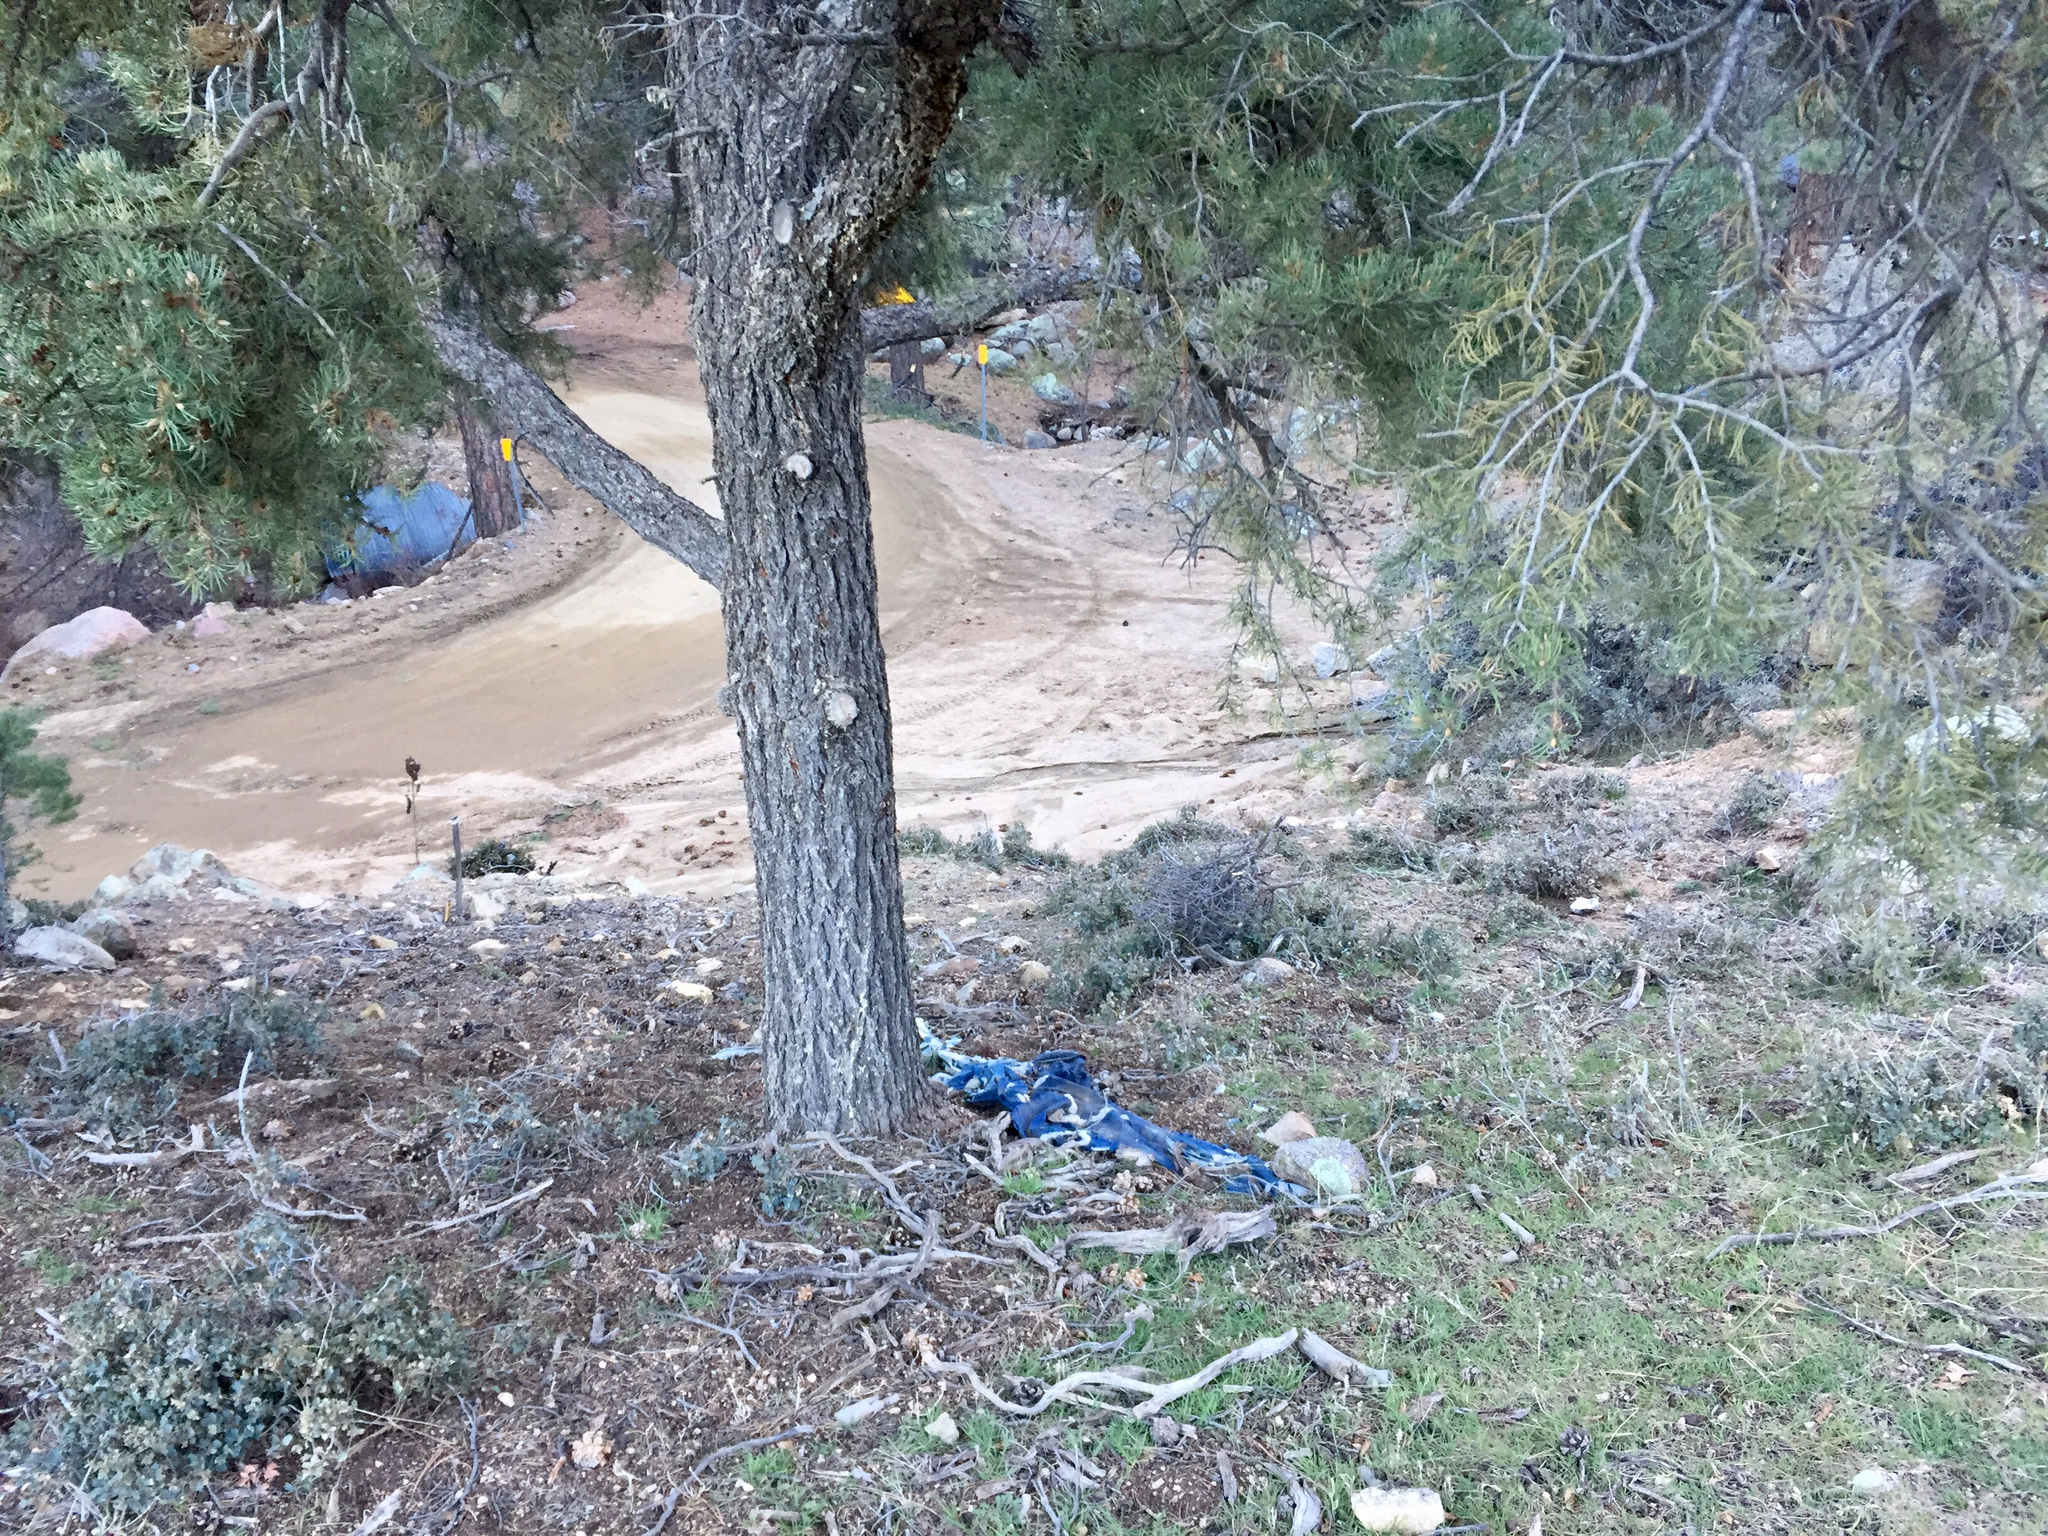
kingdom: Plantae
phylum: Tracheophyta
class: Pinopsida
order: Pinales
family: Pinaceae
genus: Pinus
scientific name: Pinus monophylla
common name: One-leaved nut pine
